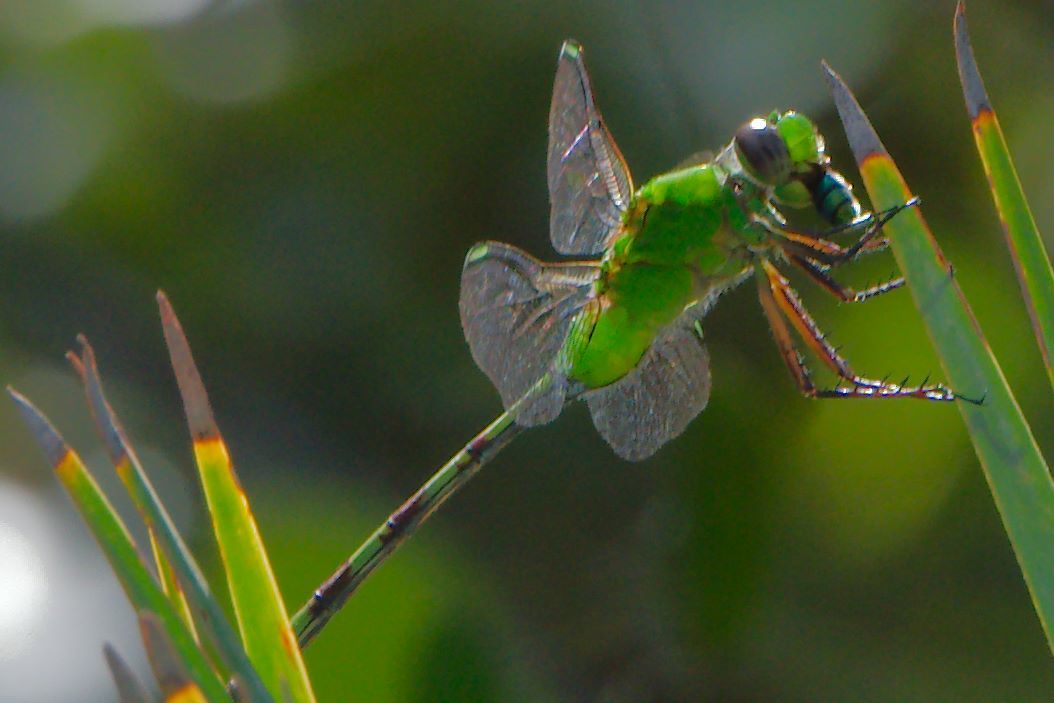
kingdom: Animalia
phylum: Arthropoda
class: Insecta
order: Odonata
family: Libellulidae
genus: Erythemis
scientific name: Erythemis vesiculosa
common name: Great pondhawk
